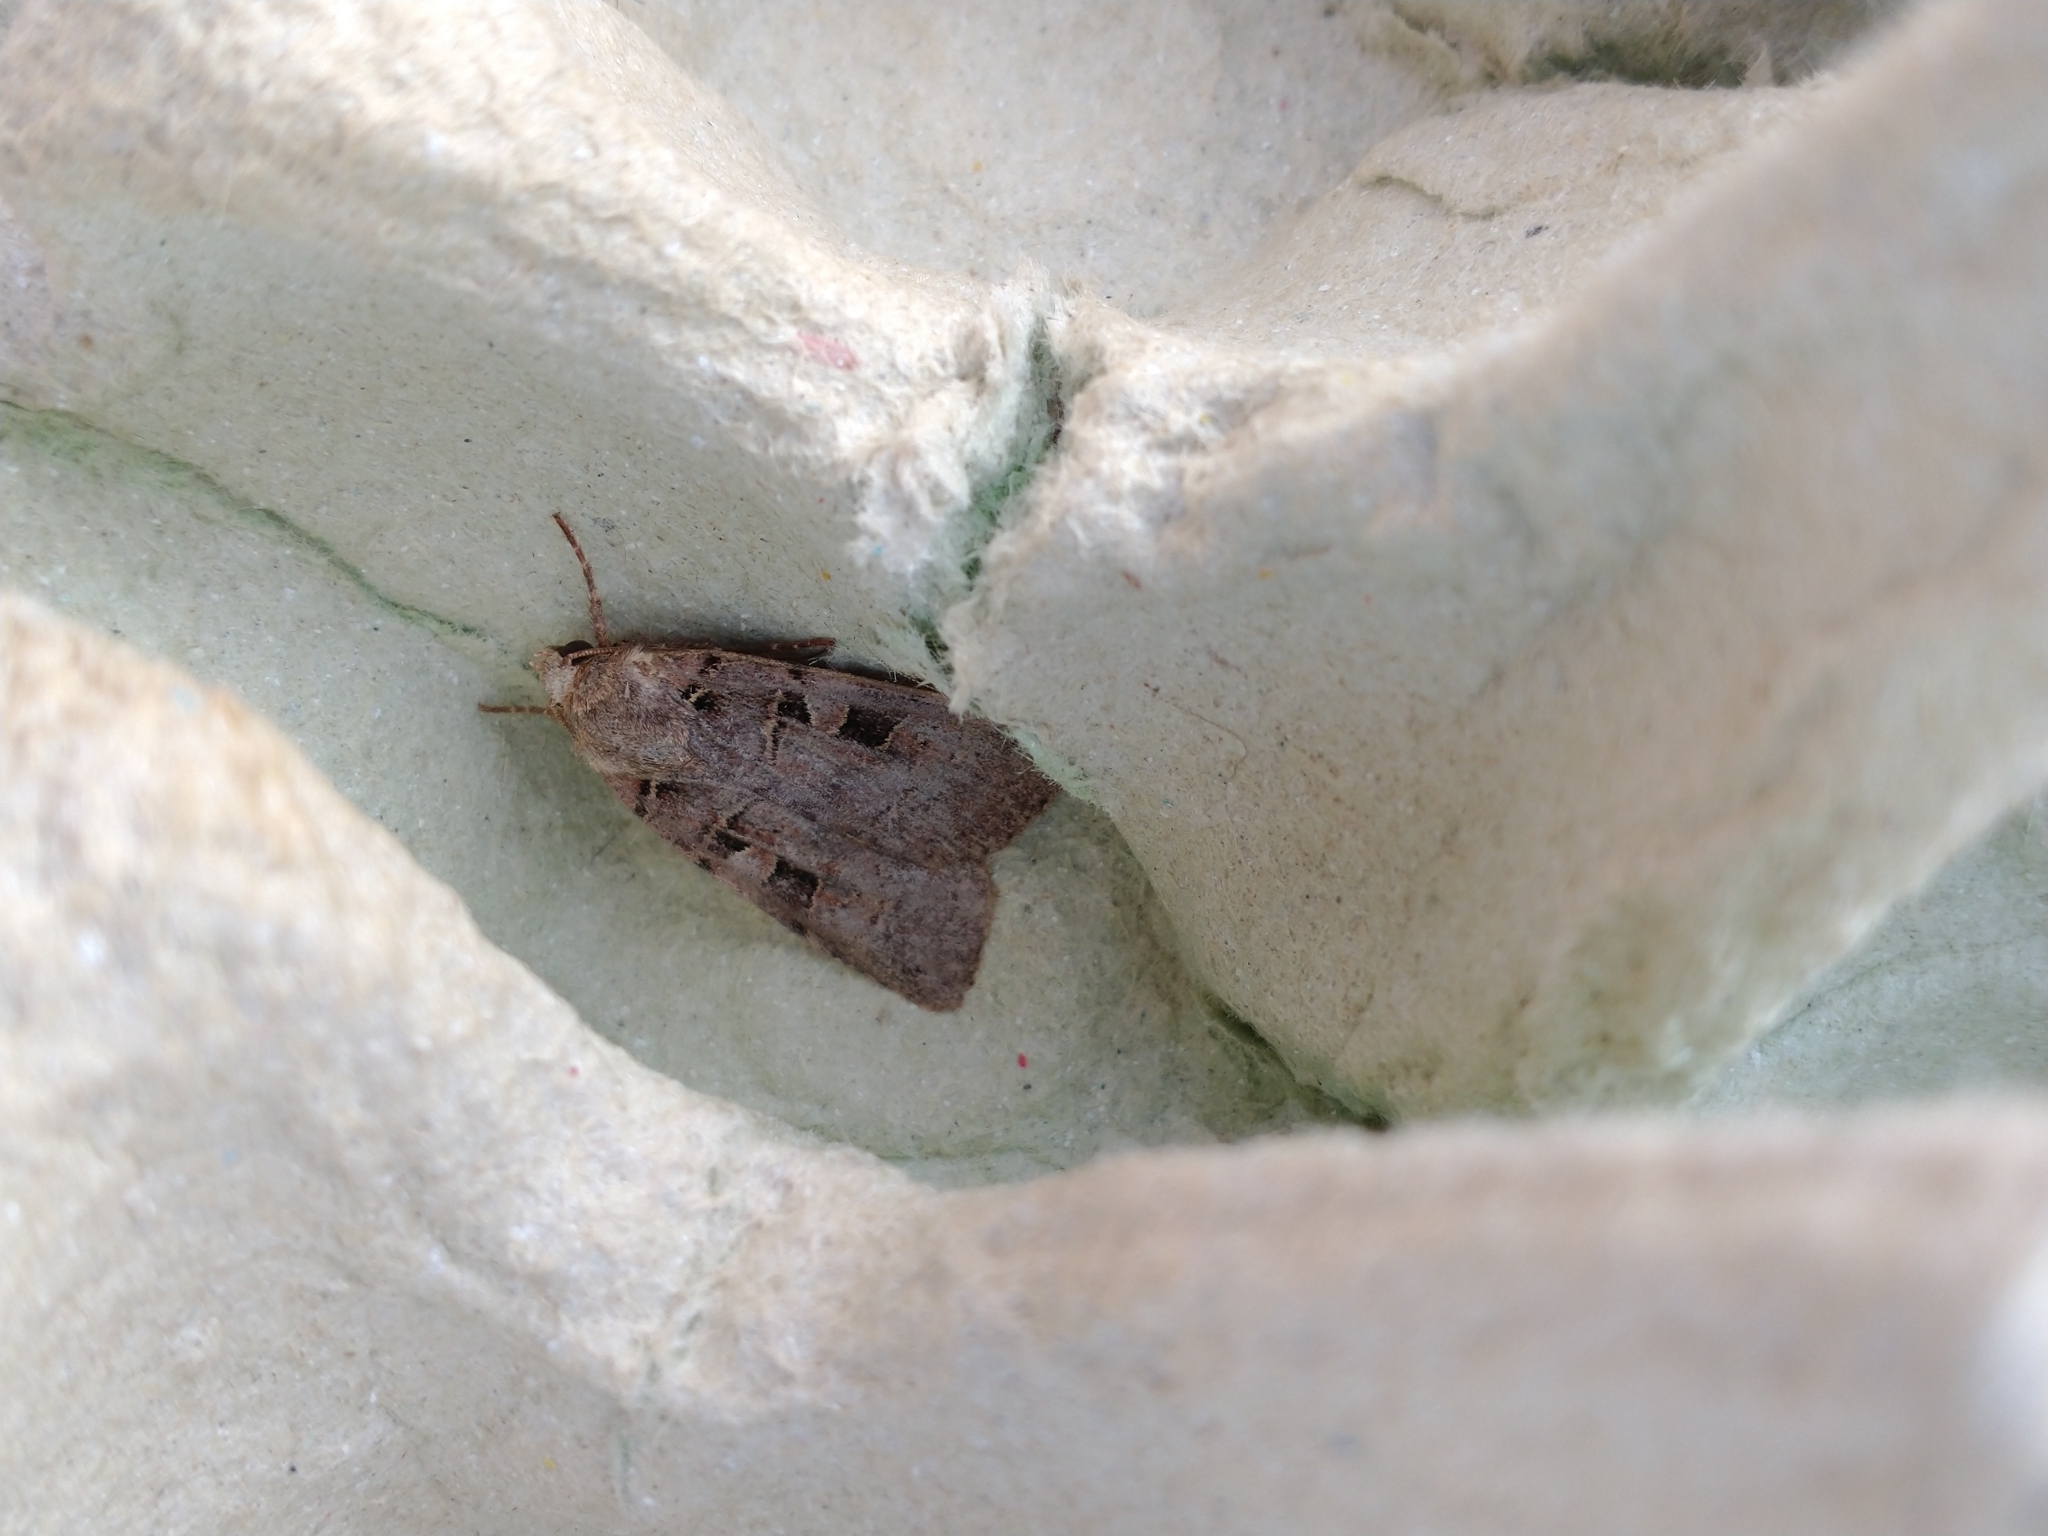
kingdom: Animalia
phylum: Arthropoda
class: Insecta
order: Lepidoptera
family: Noctuidae
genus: Xestia
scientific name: Xestia triangulum
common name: Double square-spot
